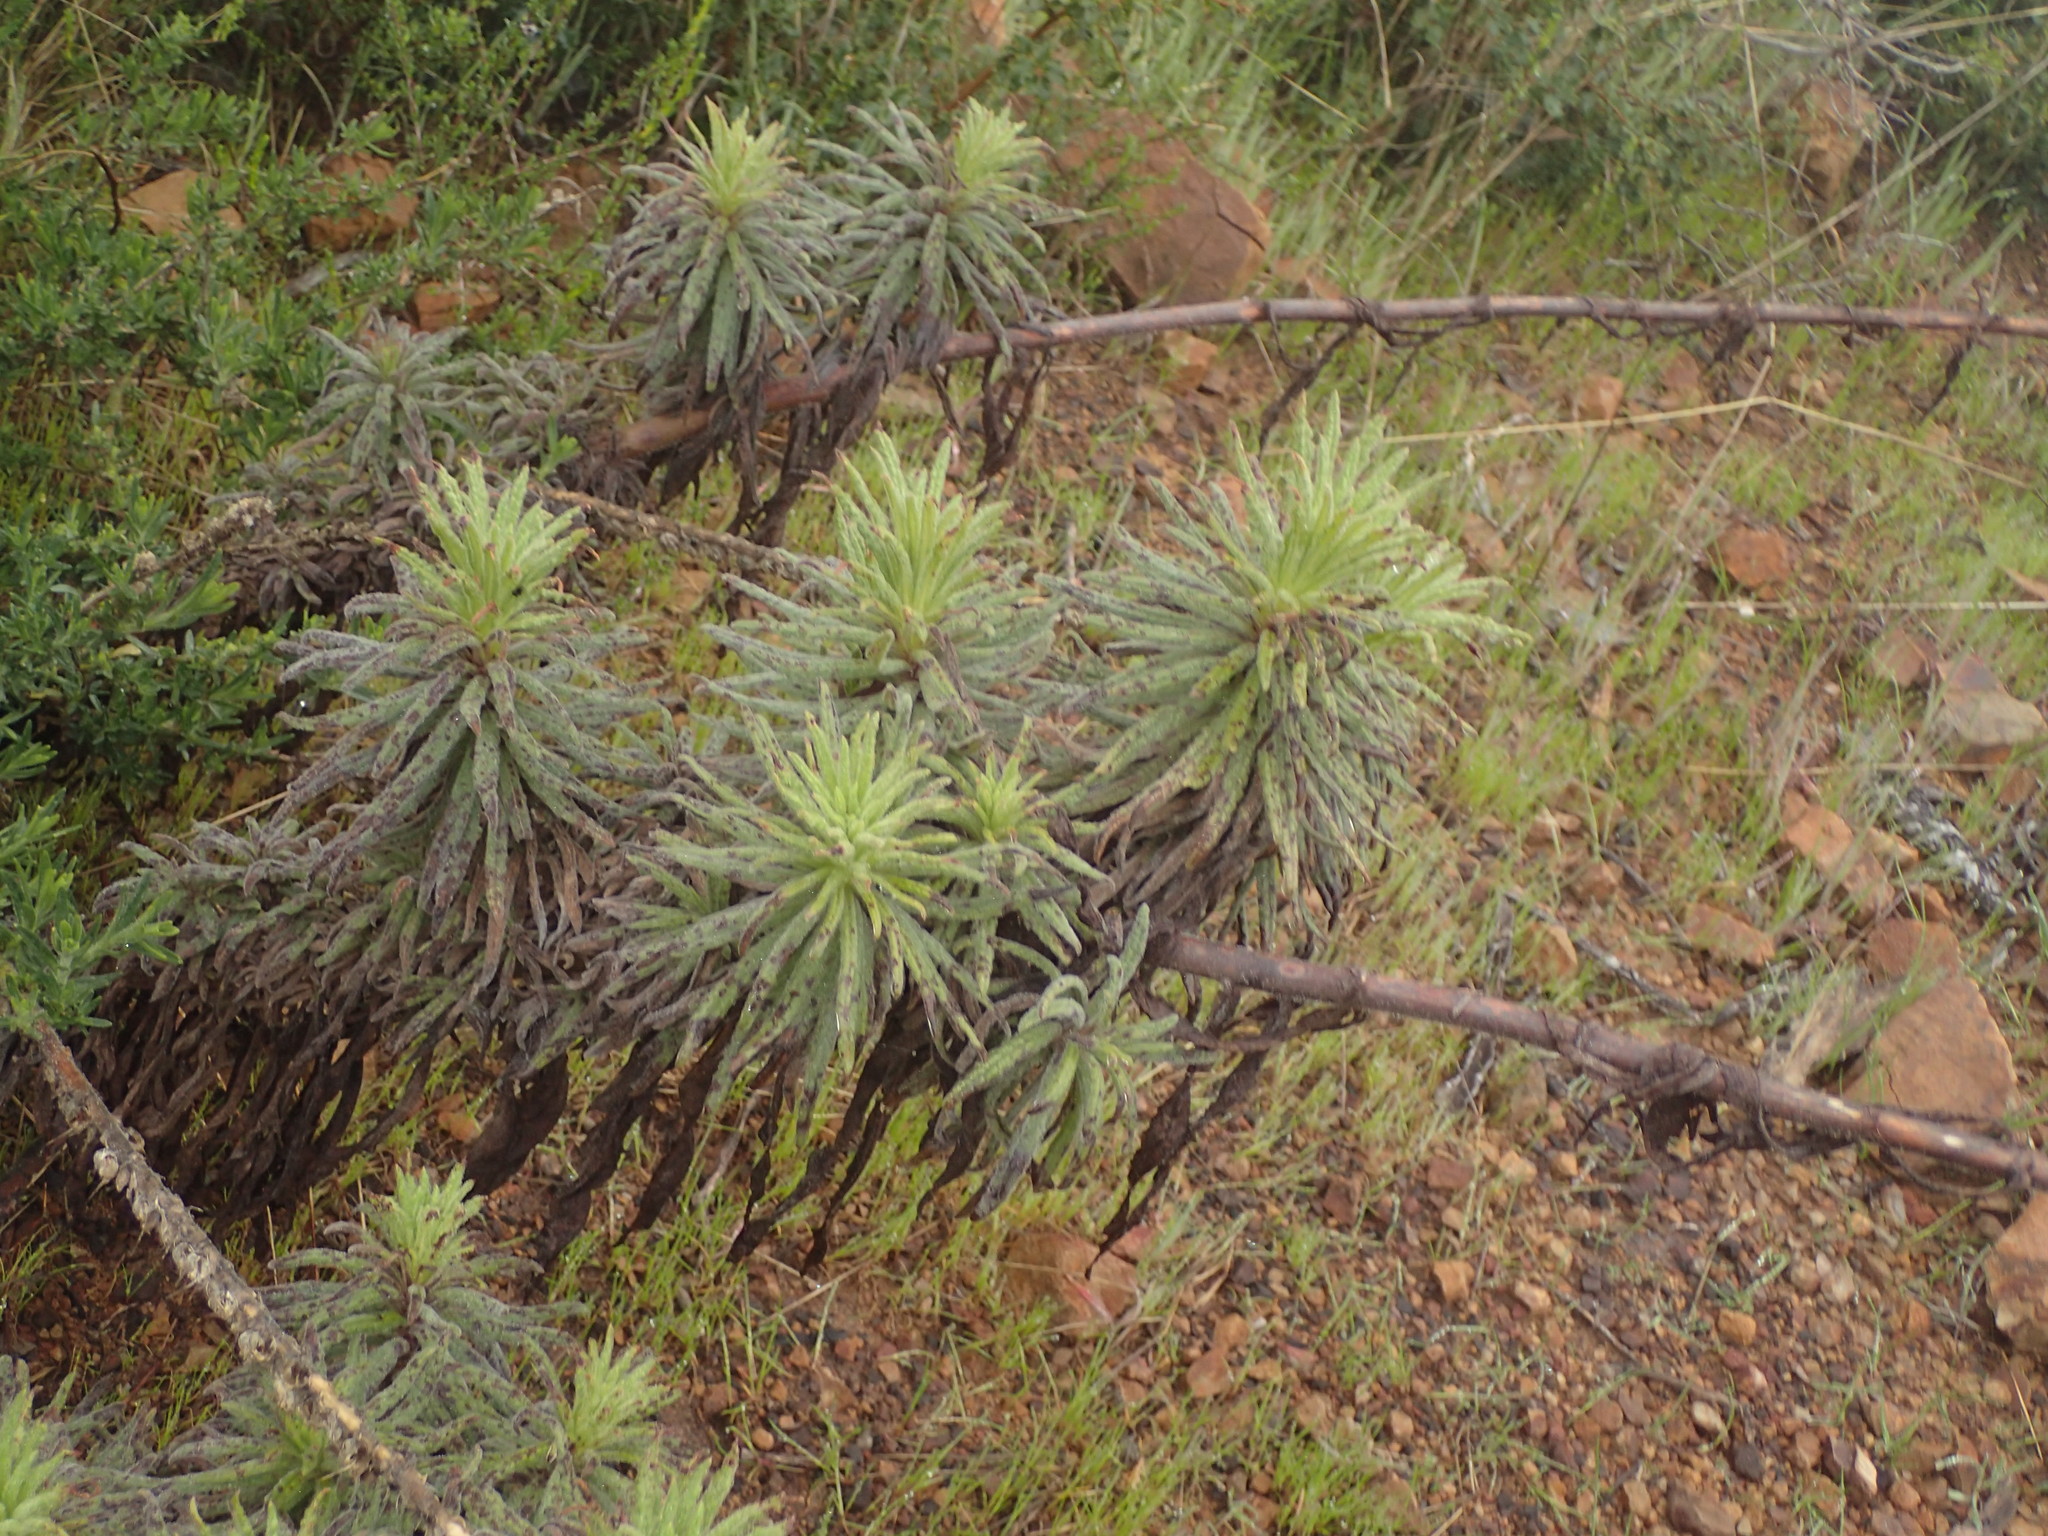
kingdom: Plantae
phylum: Tracheophyta
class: Magnoliopsida
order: Boraginales
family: Namaceae
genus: Turricula
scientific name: Turricula parryi
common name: Poodle-dog-bush
